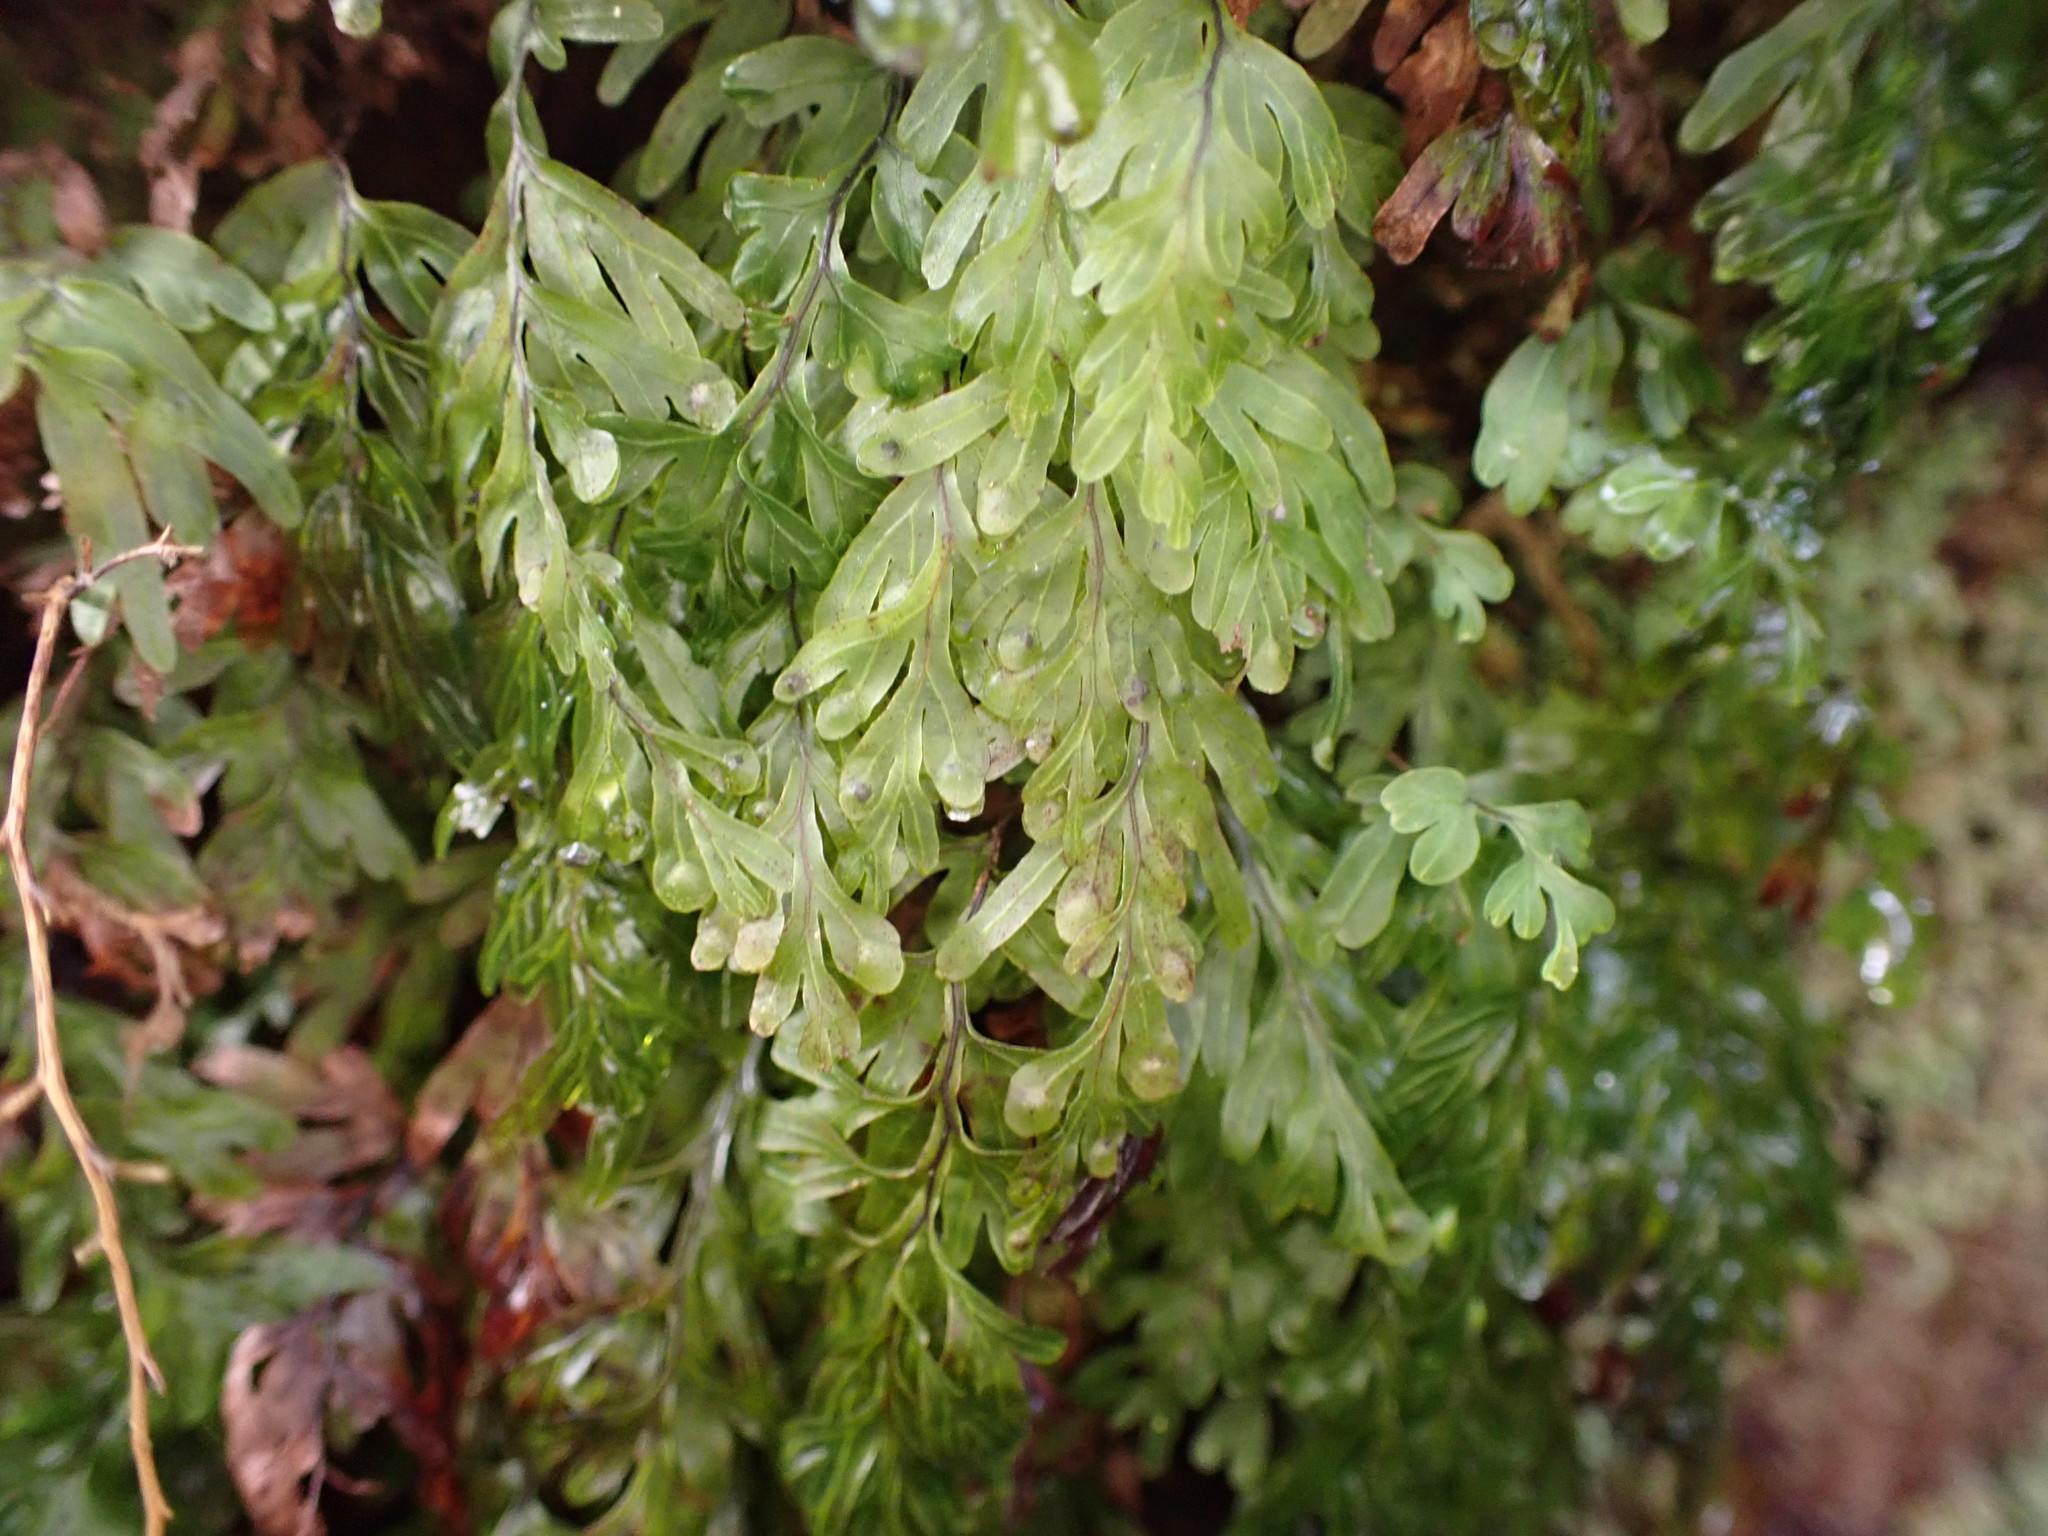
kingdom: Plantae
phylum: Tracheophyta
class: Polypodiopsida
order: Hymenophyllales
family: Hymenophyllaceae
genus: Hymenophyllum
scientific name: Hymenophyllum rarum
